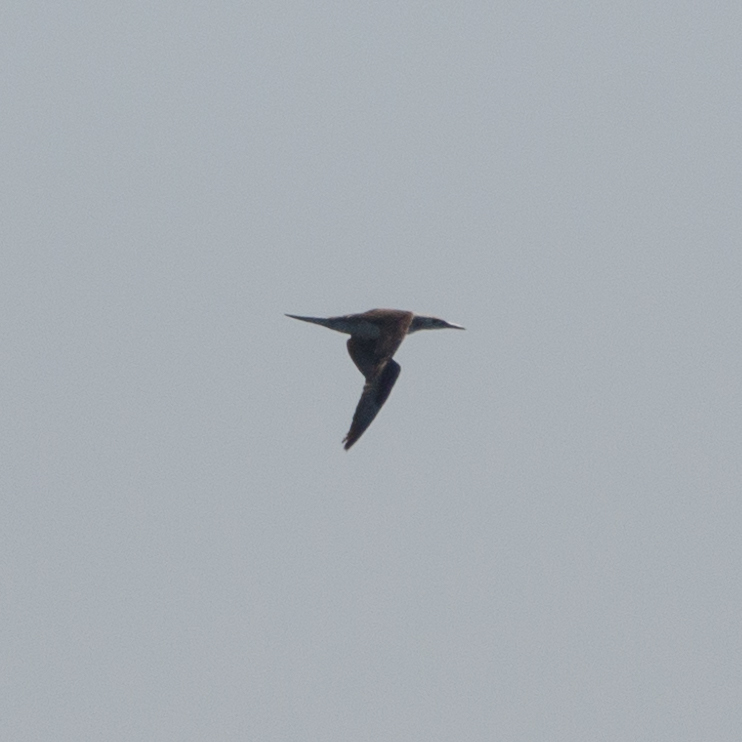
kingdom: Animalia
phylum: Chordata
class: Aves
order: Suliformes
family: Sulidae
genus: Morus
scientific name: Morus bassanus
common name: Northern gannet
